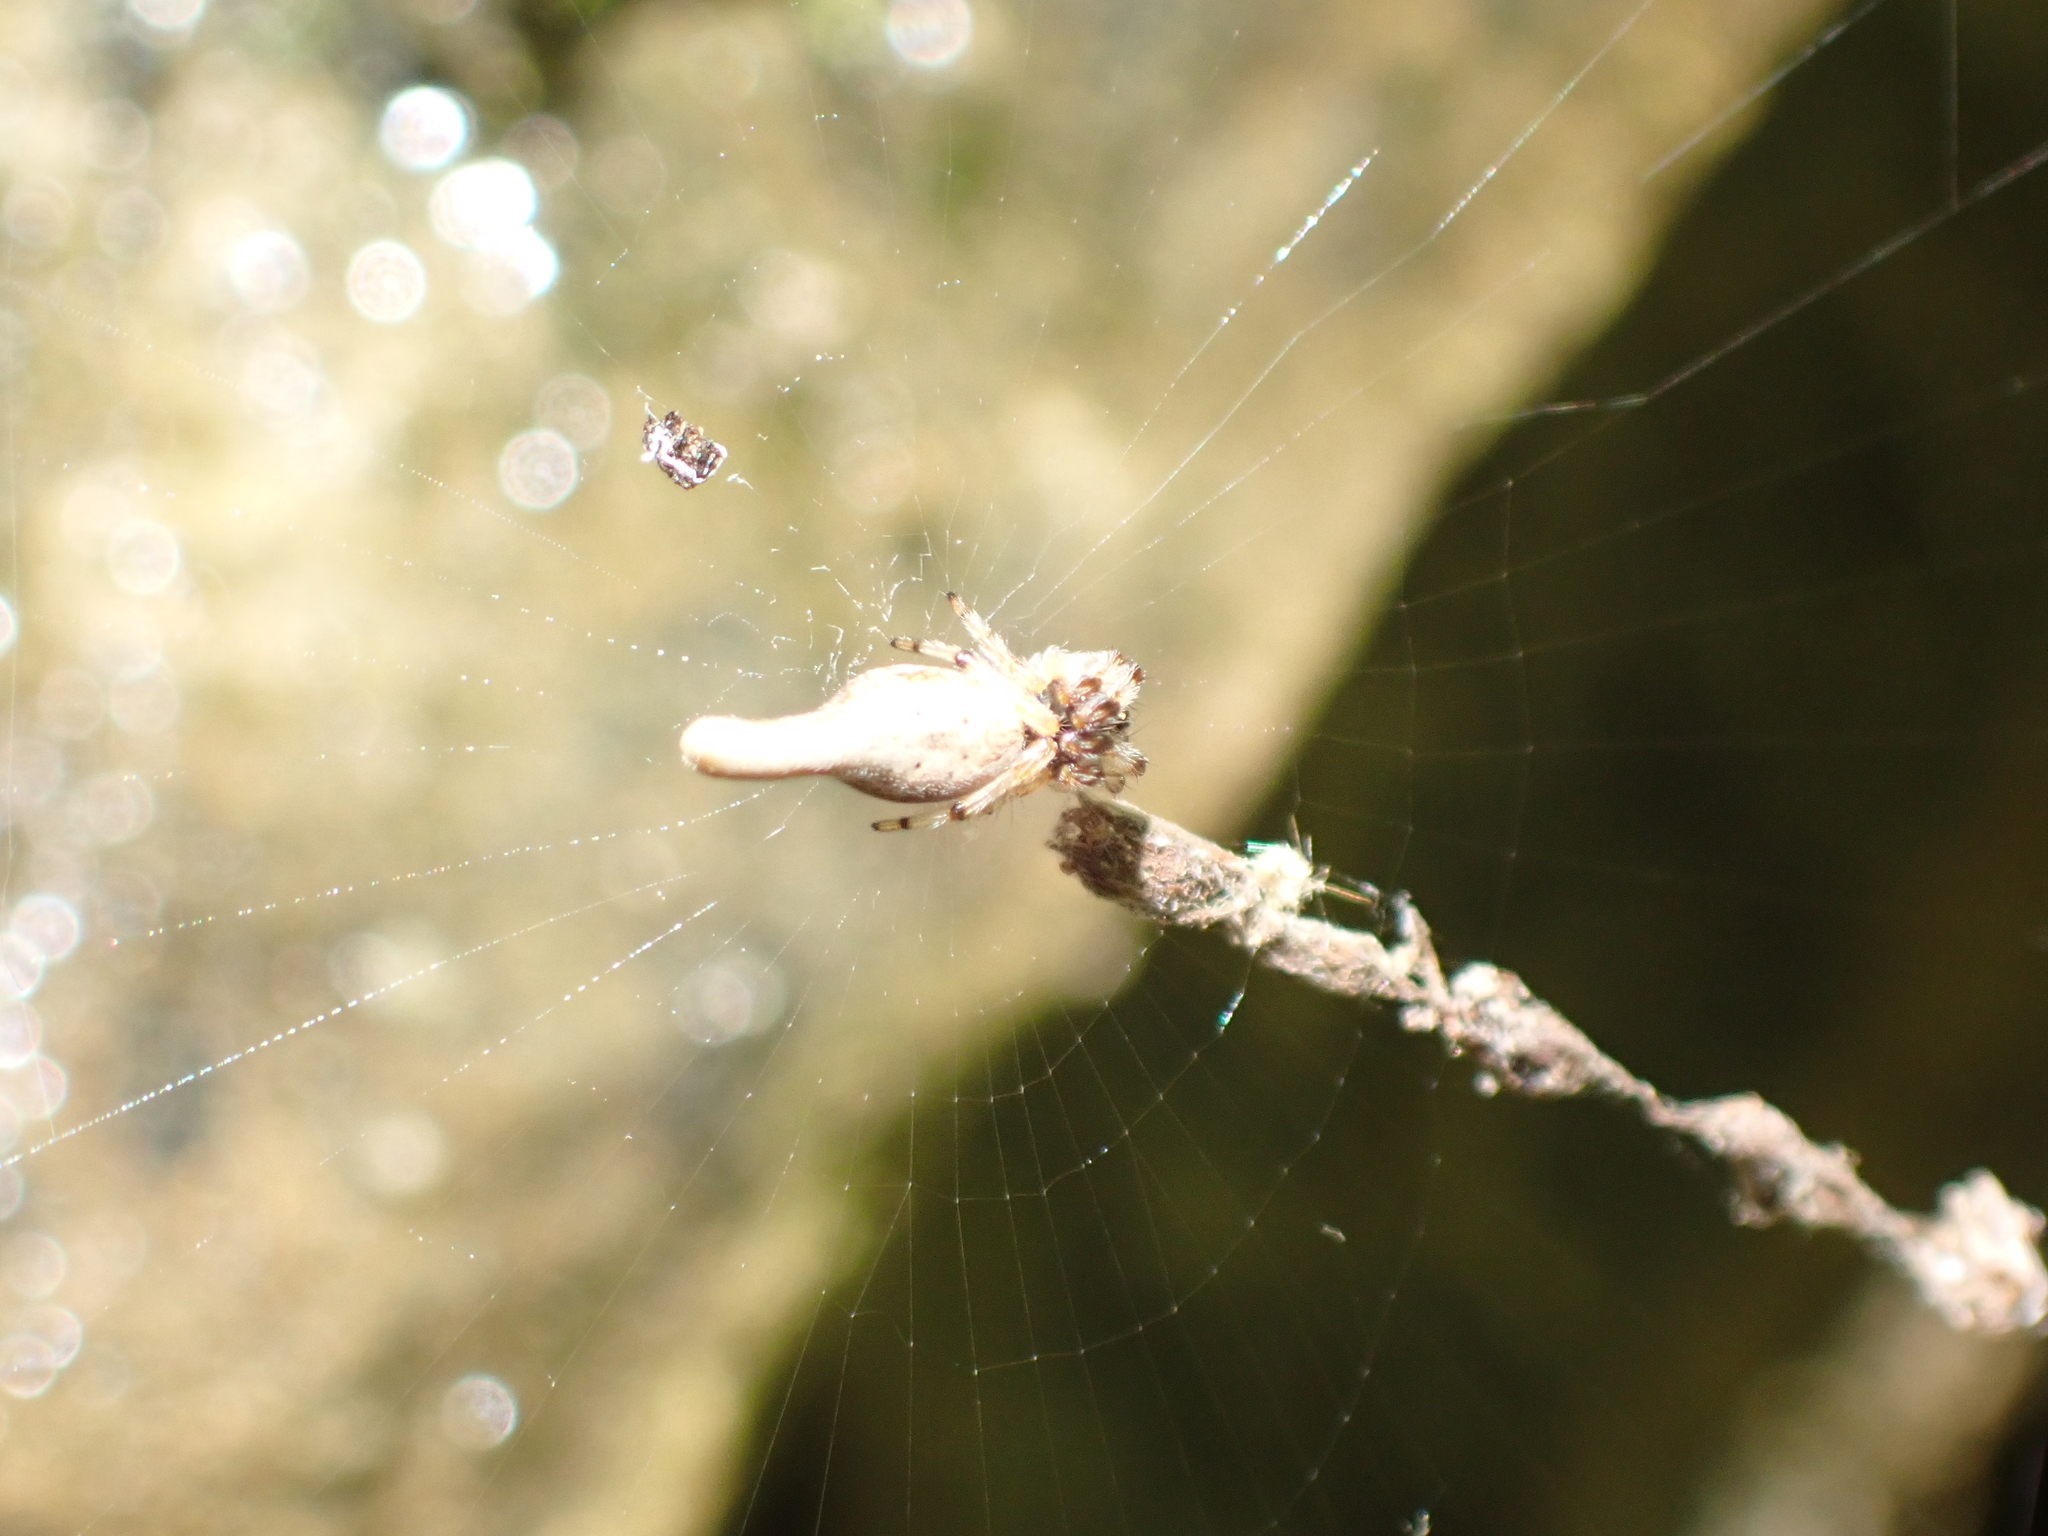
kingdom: Animalia
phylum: Arthropoda
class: Arachnida
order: Araneae
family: Araneidae
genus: Cyclosa
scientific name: Cyclosa conica
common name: Conical trashline orbweaver
